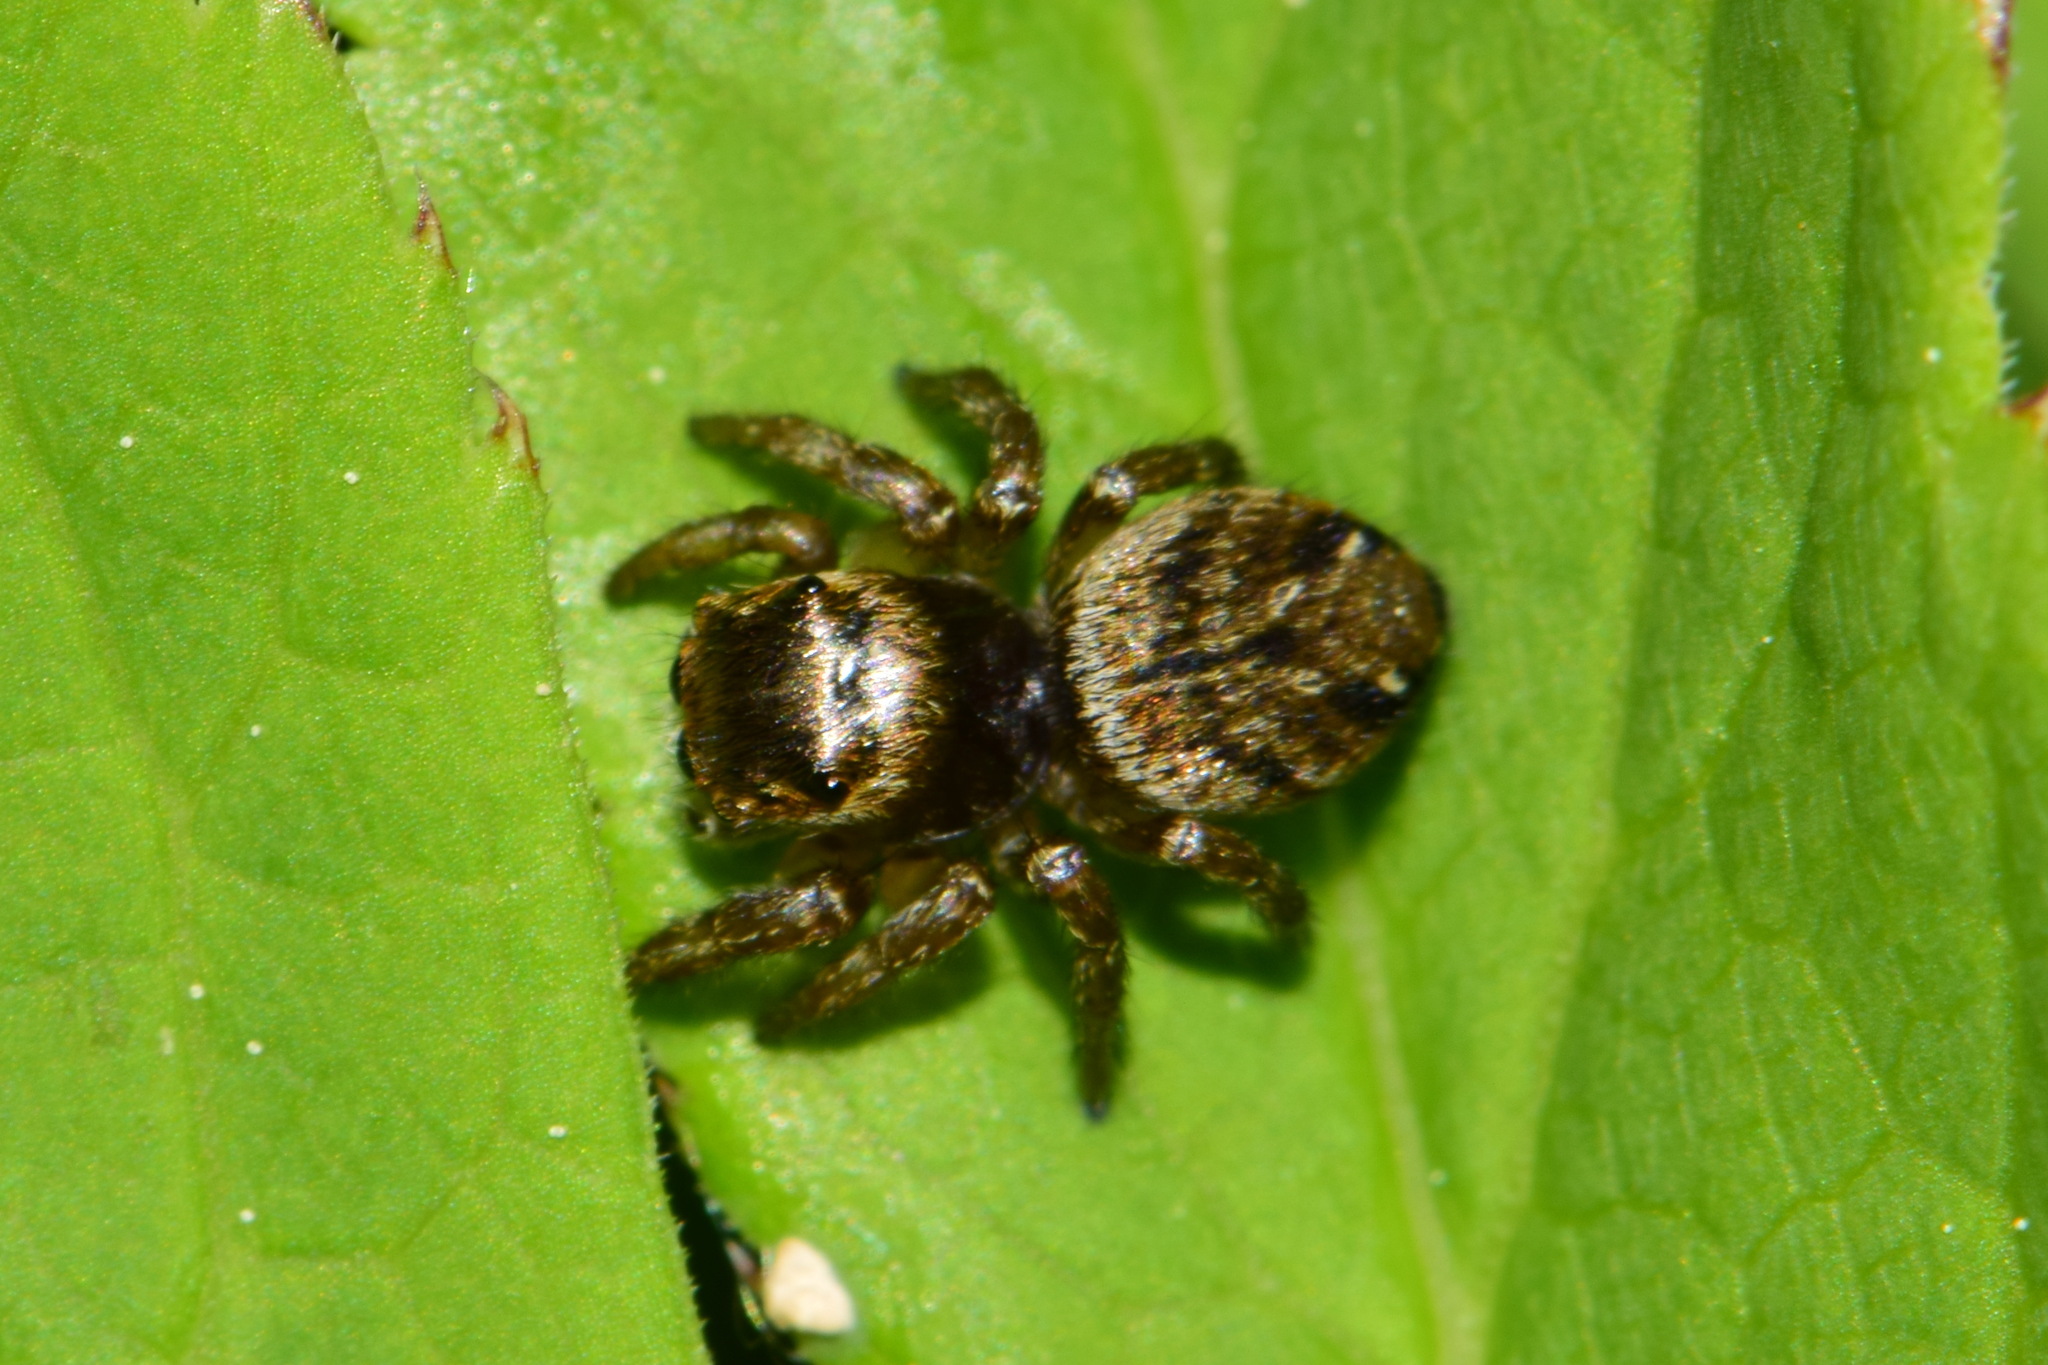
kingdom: Animalia
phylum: Arthropoda
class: Arachnida
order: Araneae
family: Salticidae
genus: Evarcha
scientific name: Evarcha arcuata
